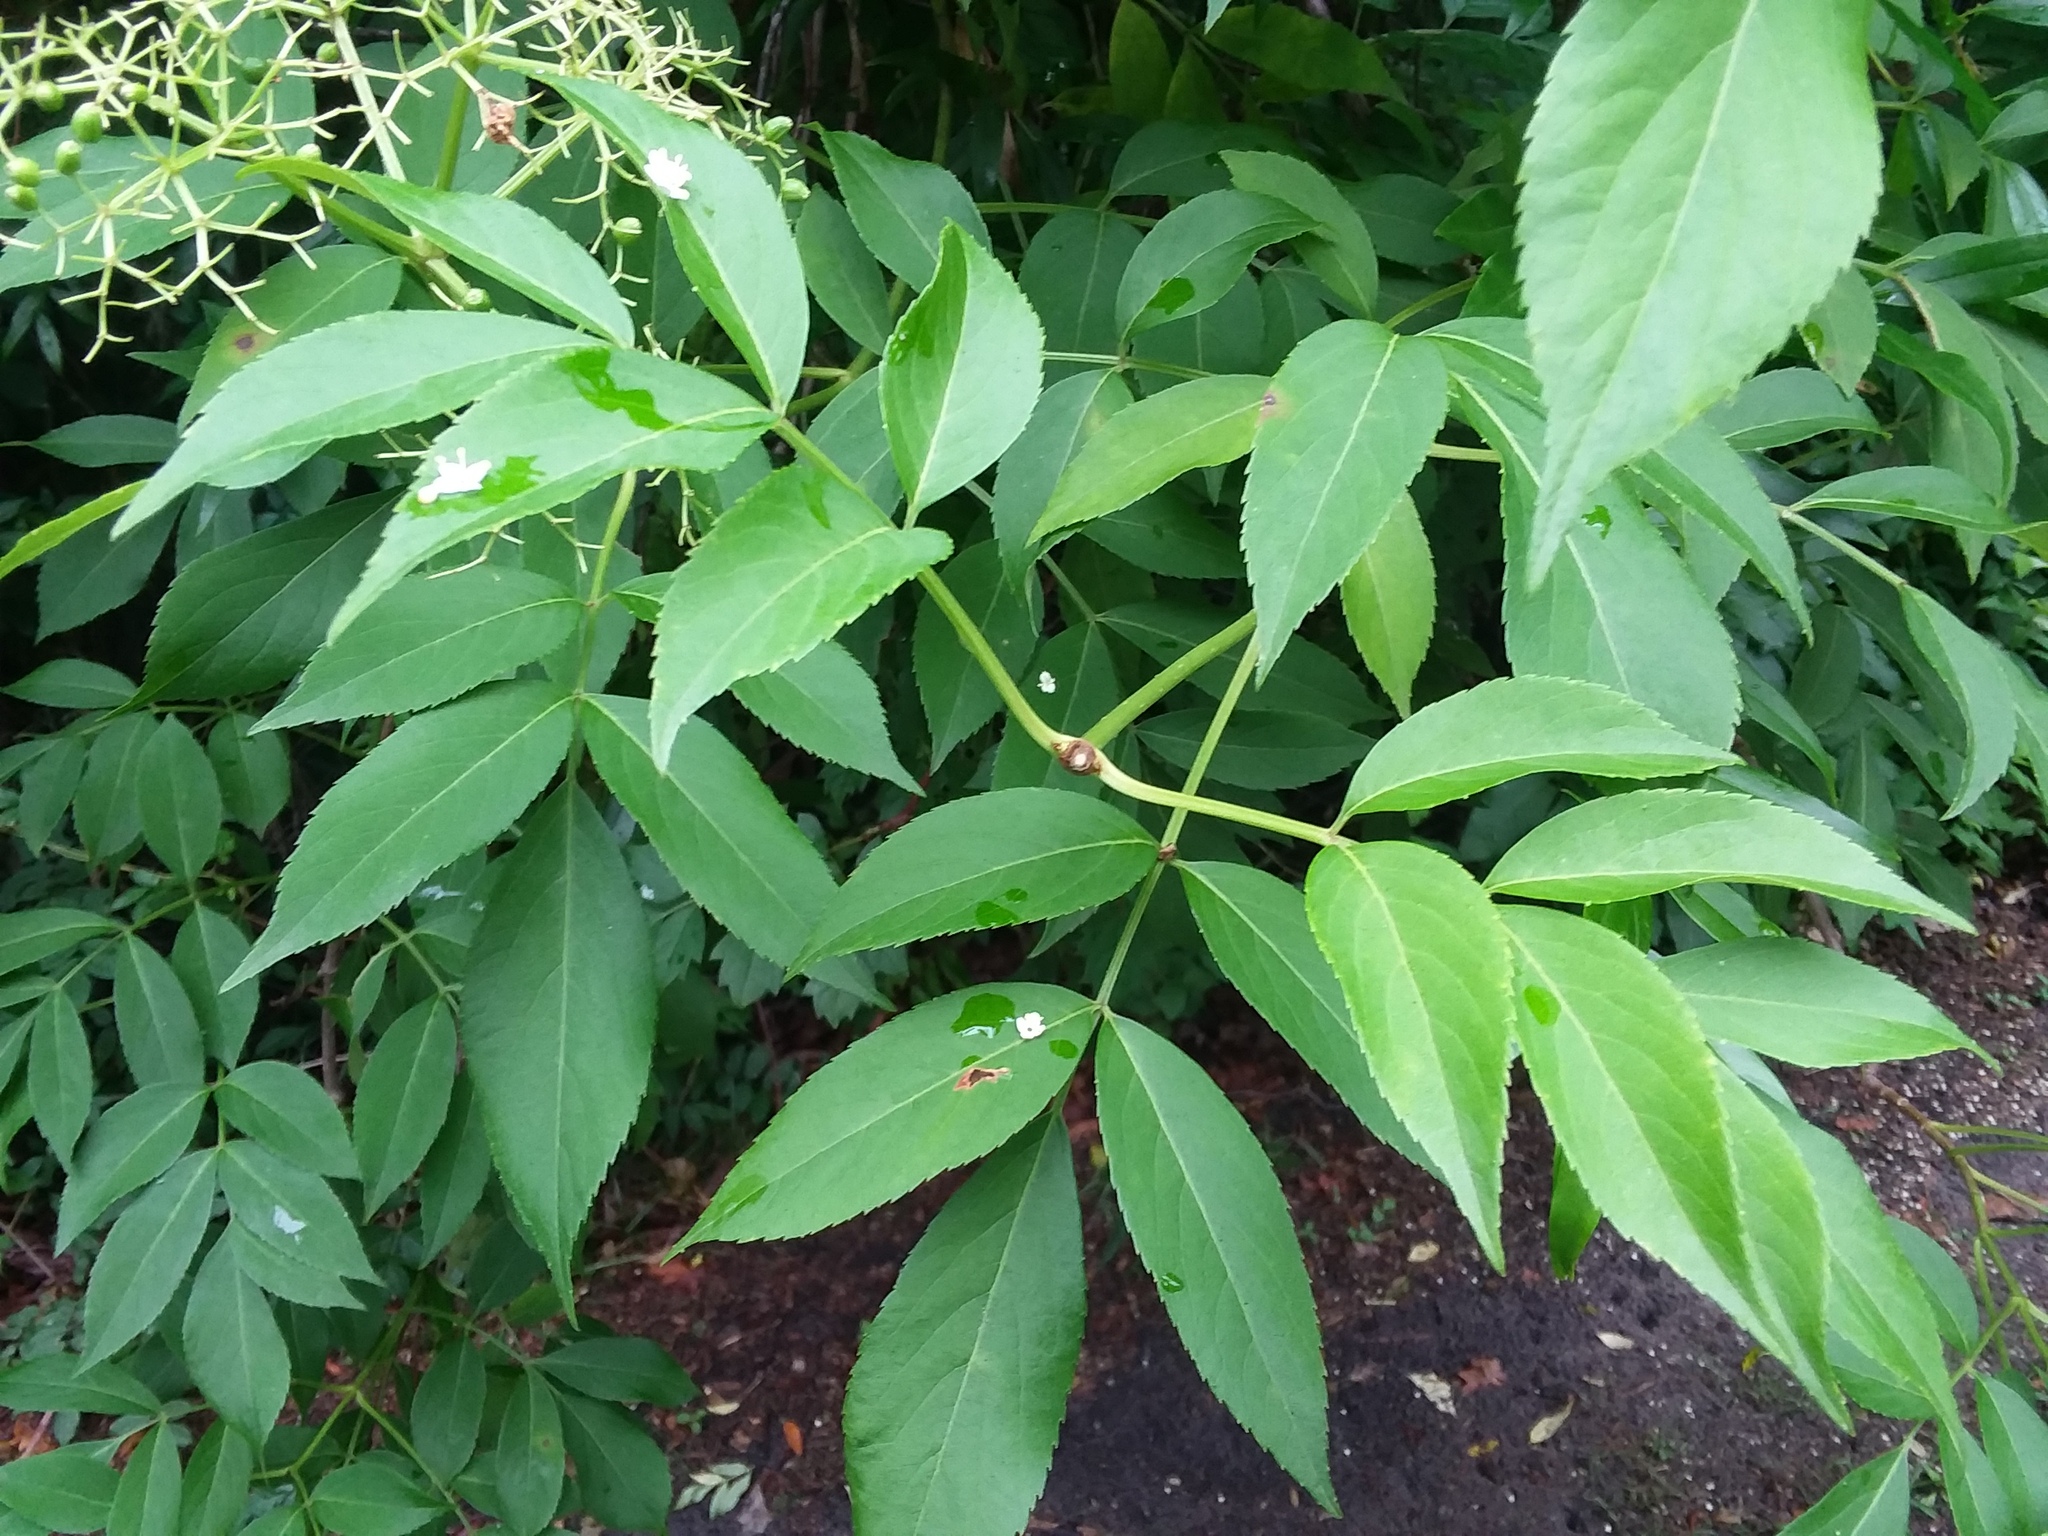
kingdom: Plantae
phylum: Tracheophyta
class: Magnoliopsida
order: Dipsacales
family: Viburnaceae
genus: Sambucus
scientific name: Sambucus canadensis
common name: American elder
